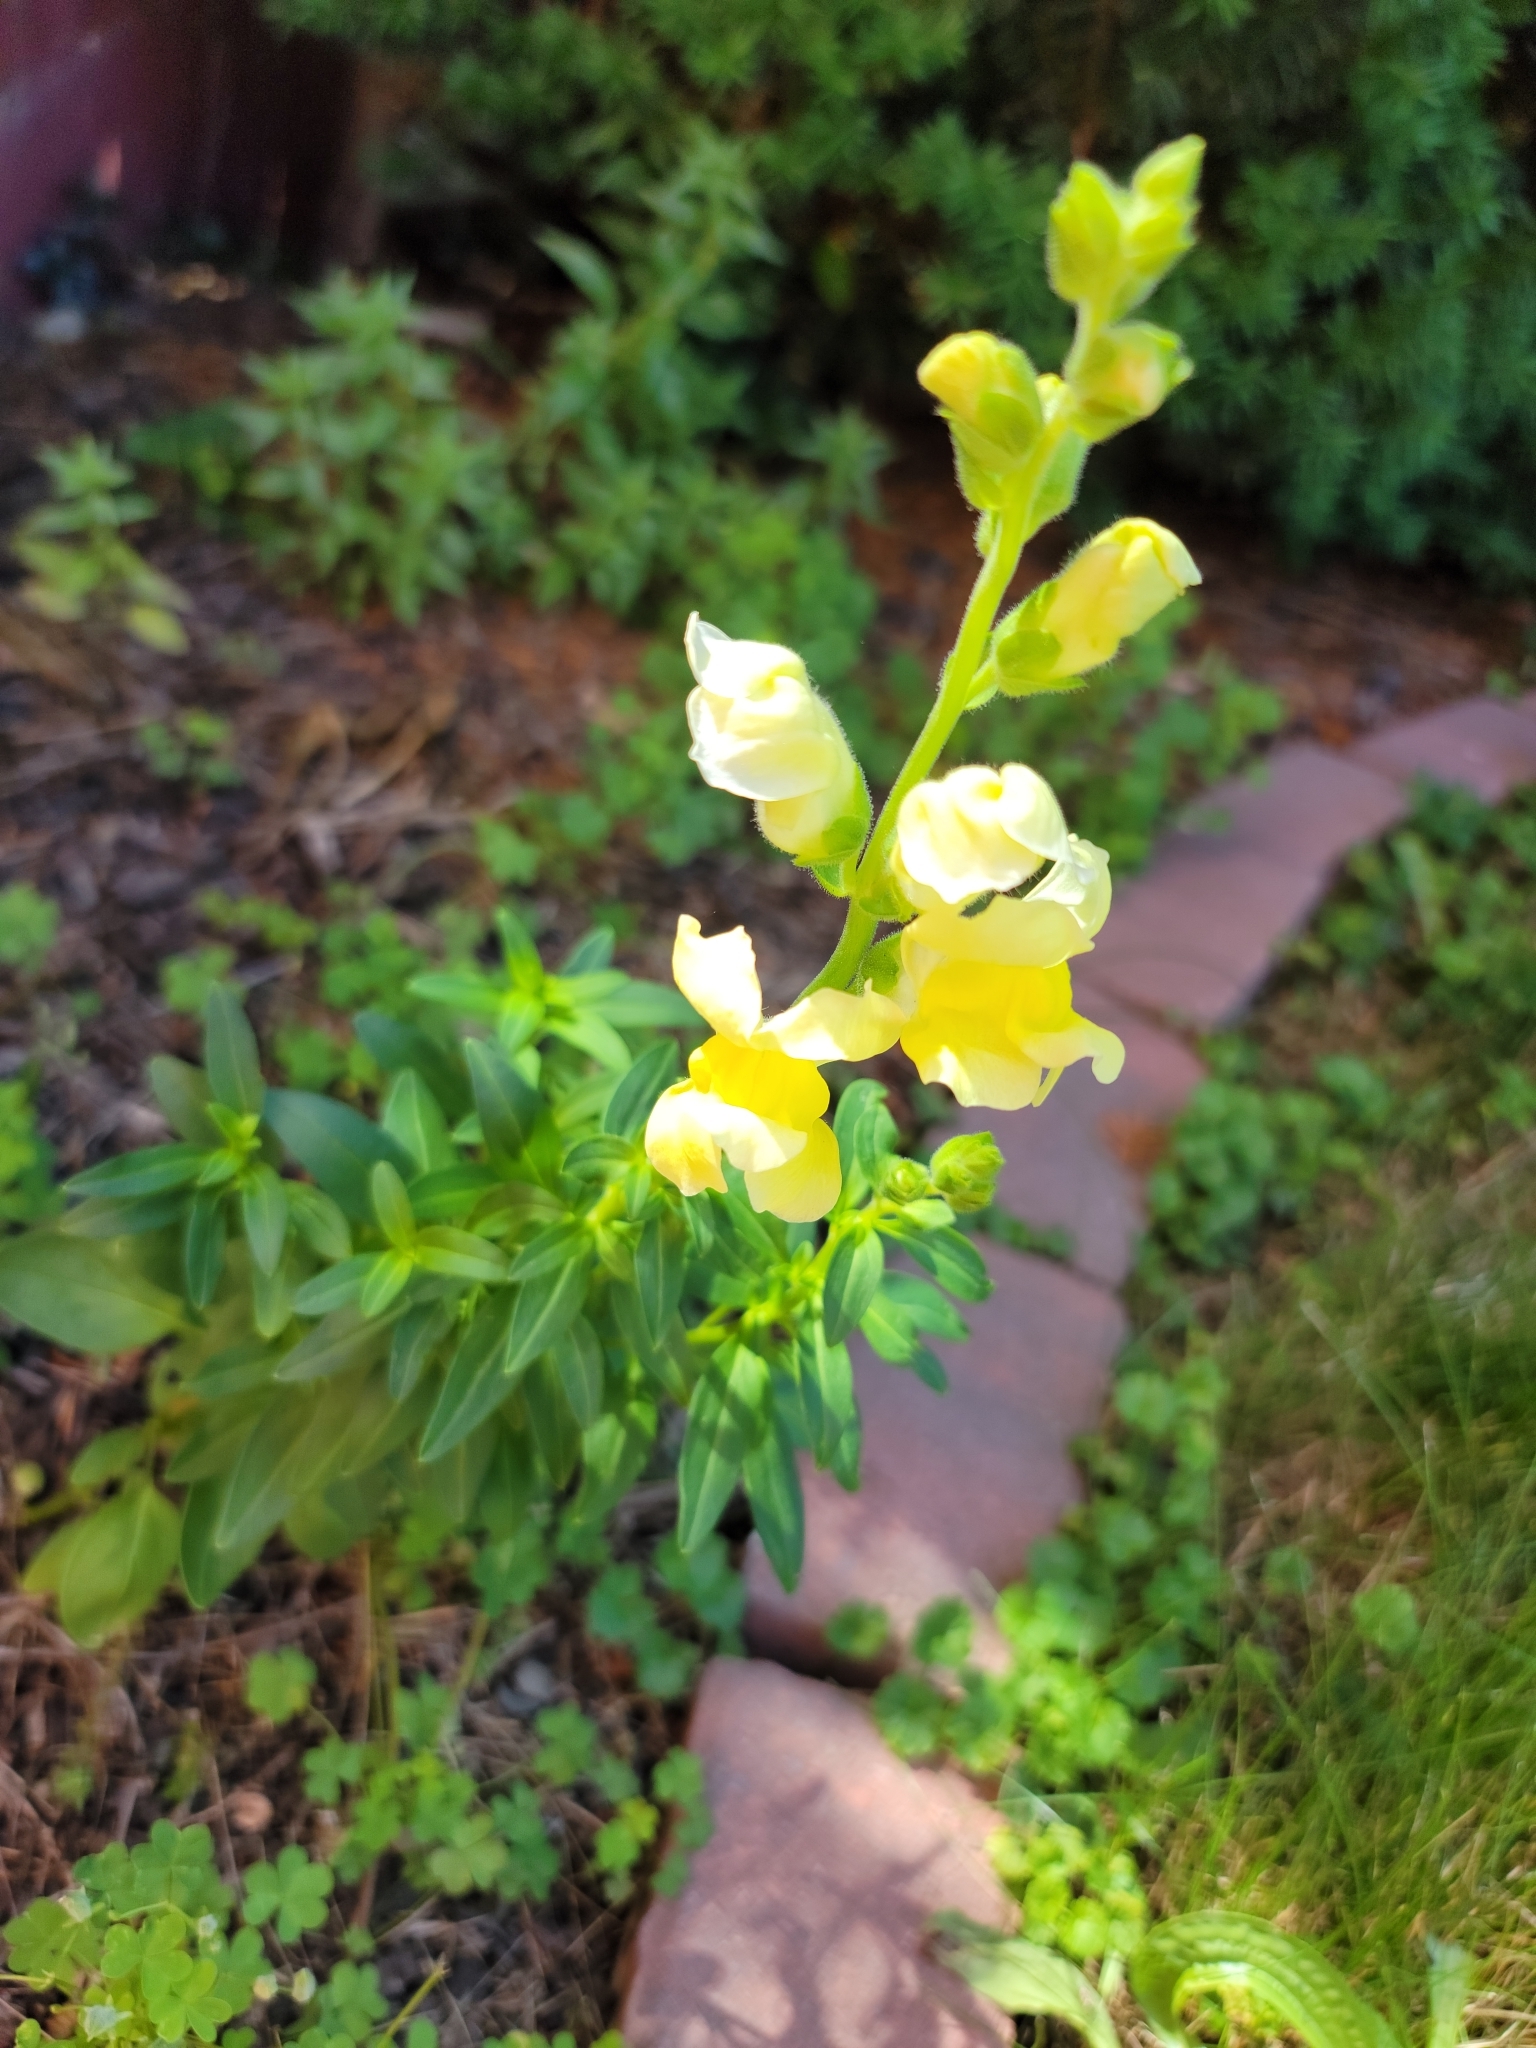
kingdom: Plantae
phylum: Tracheophyta
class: Magnoliopsida
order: Lamiales
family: Plantaginaceae
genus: Antirrhinum
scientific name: Antirrhinum majus
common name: Snapdragon
